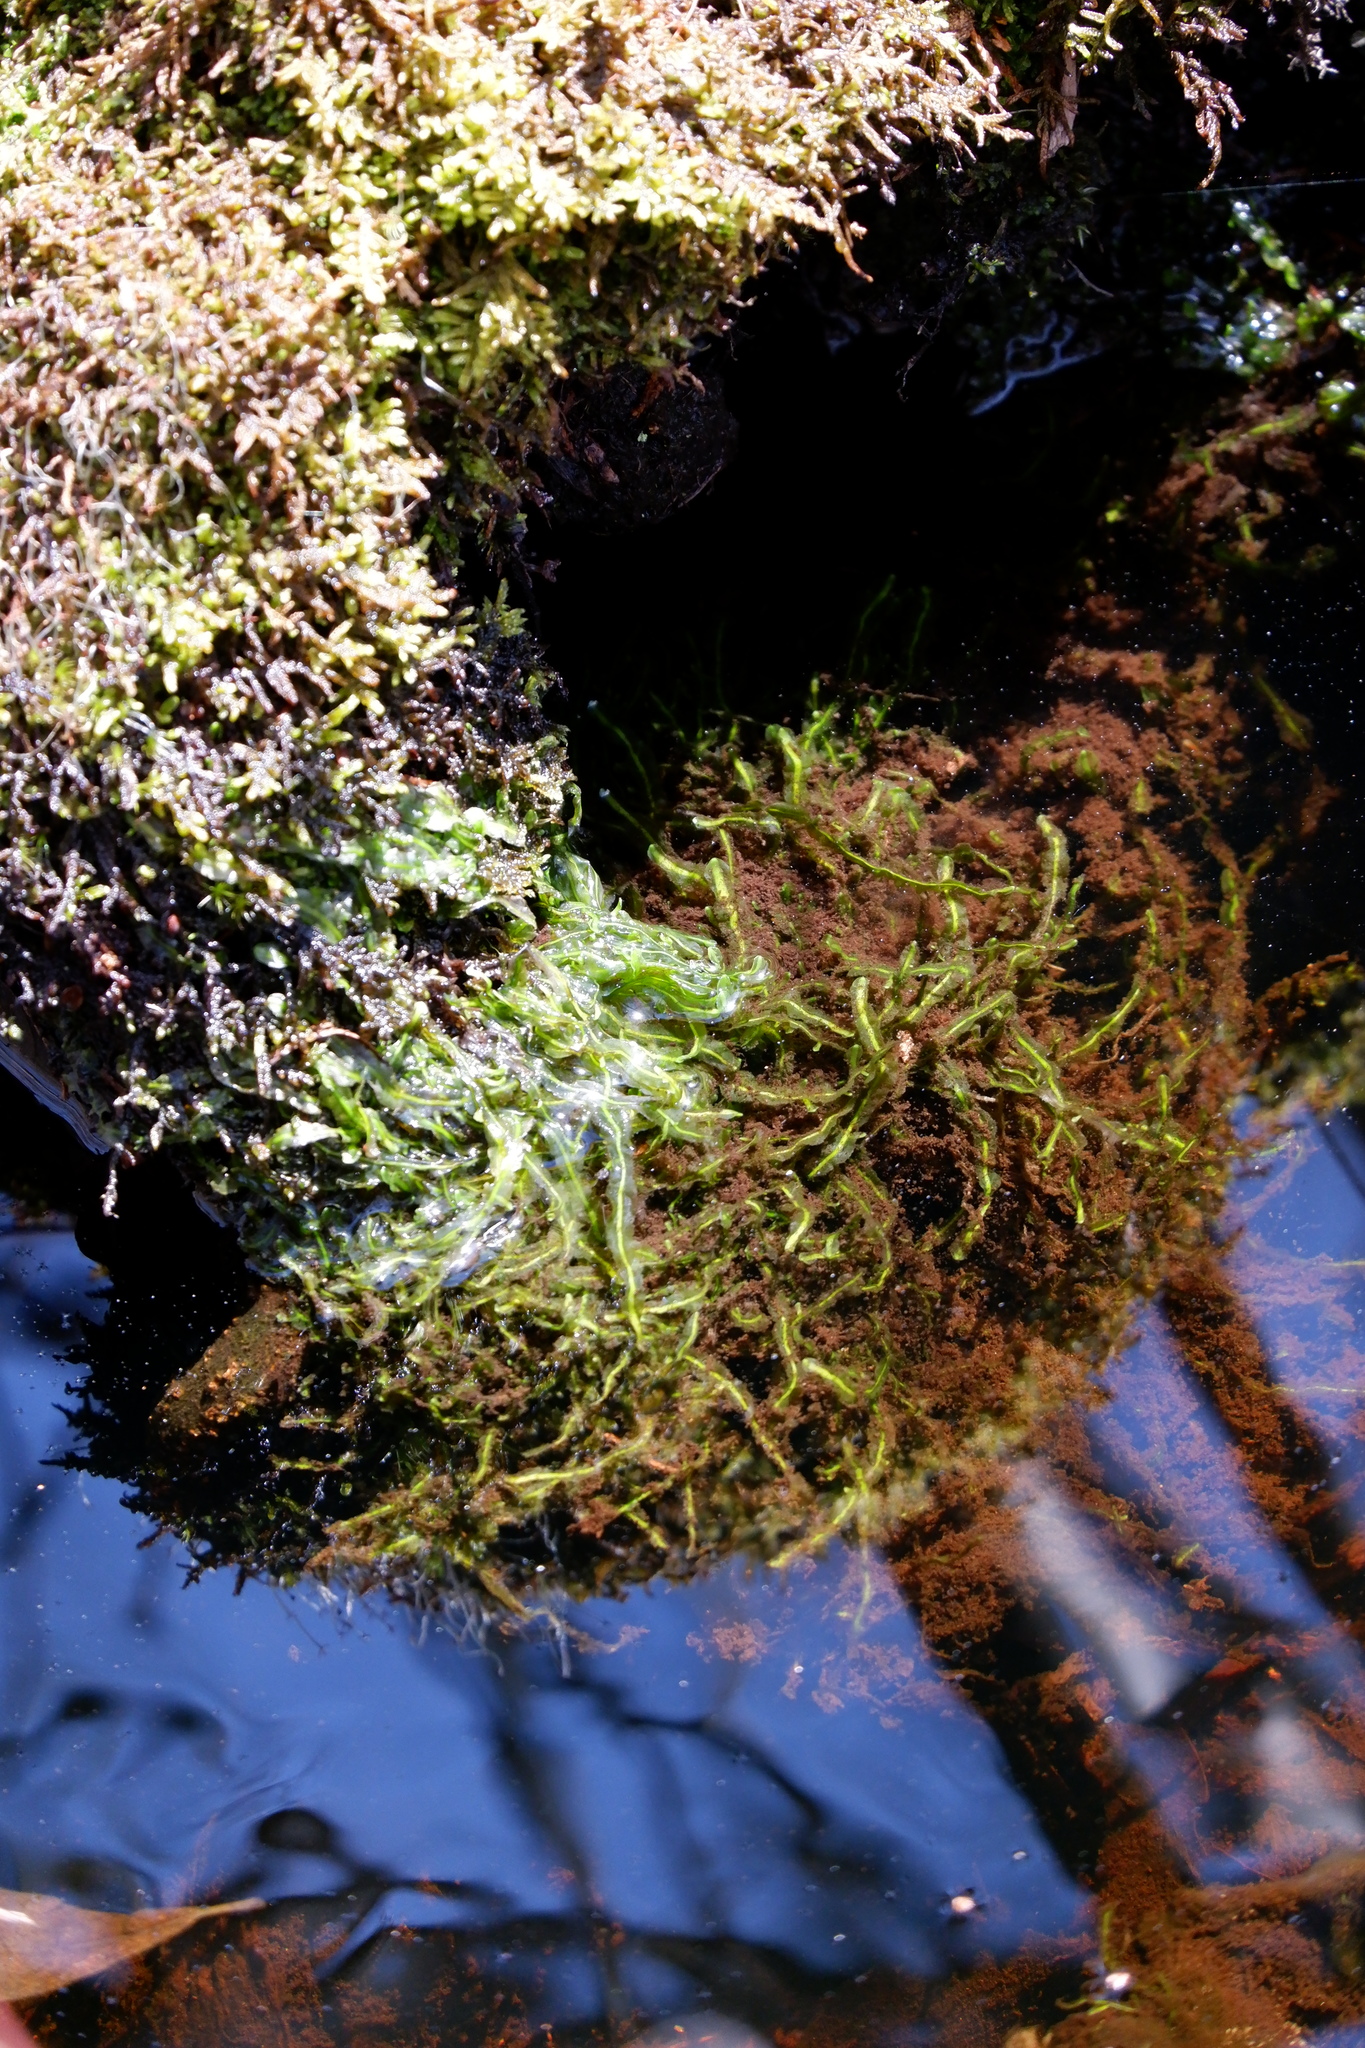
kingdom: Plantae
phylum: Marchantiophyta
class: Jungermanniopsida
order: Pallaviciniales
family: Pallaviciniaceae
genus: Pallavicinia
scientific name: Pallavicinia lyellii
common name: Veilwort
